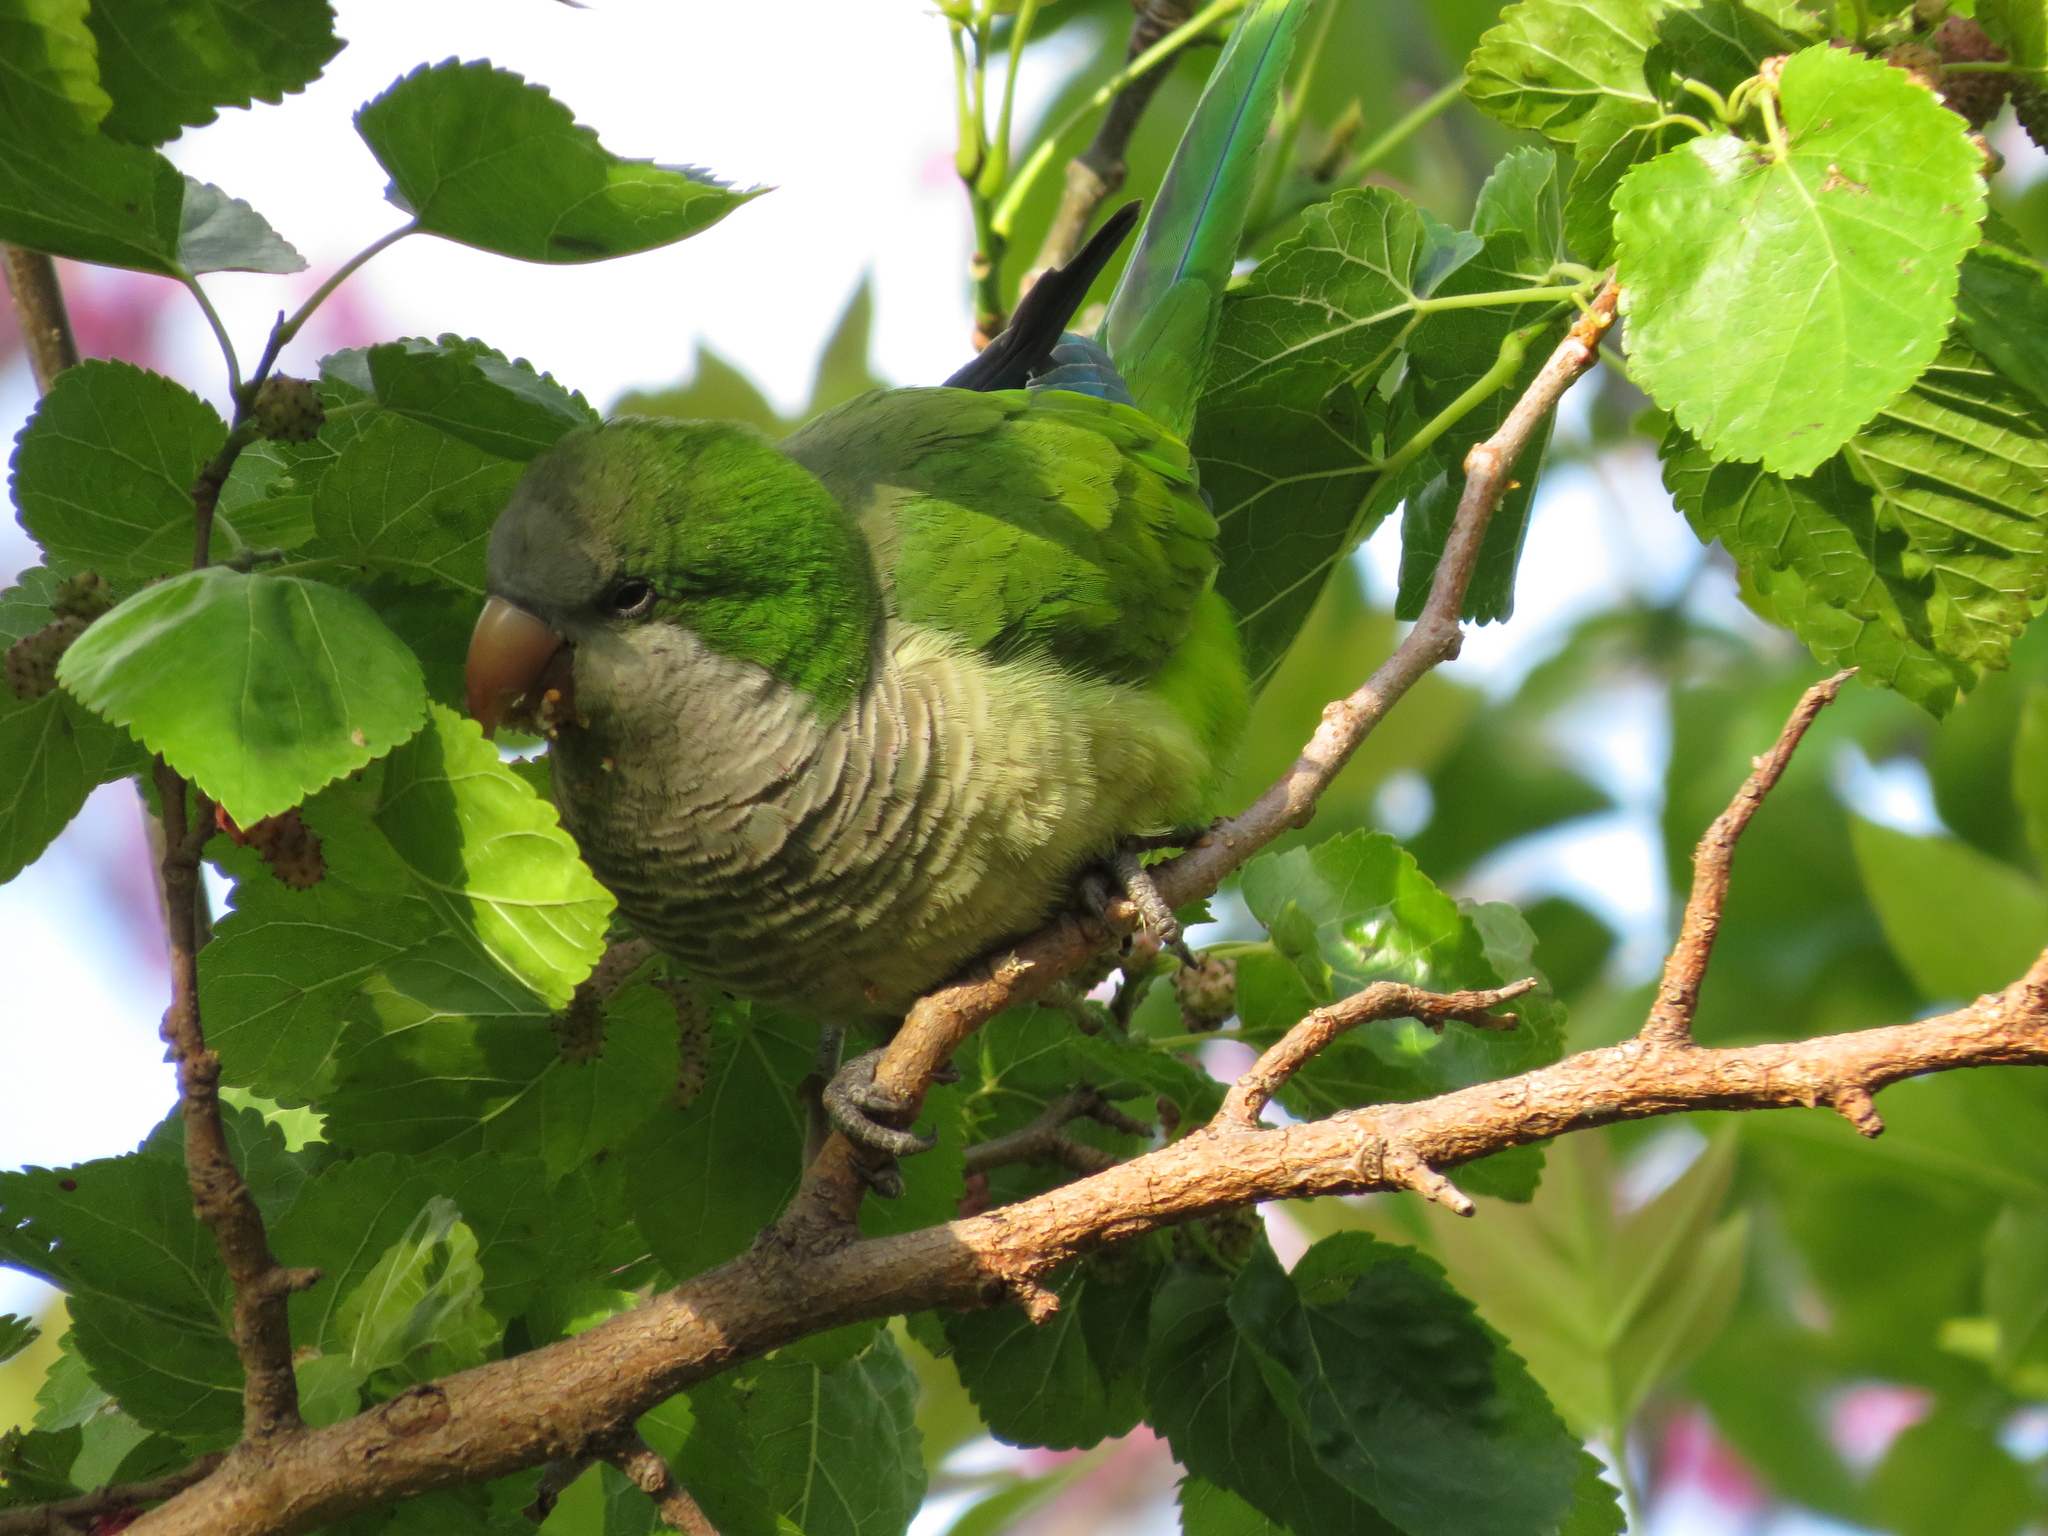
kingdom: Animalia
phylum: Chordata
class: Aves
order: Psittaciformes
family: Psittacidae
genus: Myiopsitta
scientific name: Myiopsitta monachus
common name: Monk parakeet
